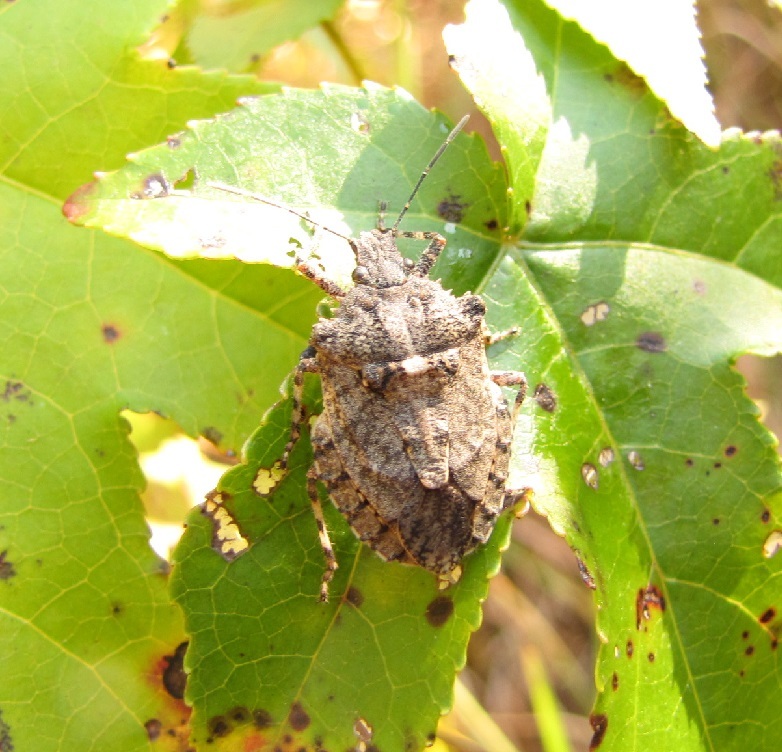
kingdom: Animalia
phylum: Arthropoda
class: Insecta
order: Hemiptera
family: Pentatomidae
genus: Brochymena
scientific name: Brochymena arborea
